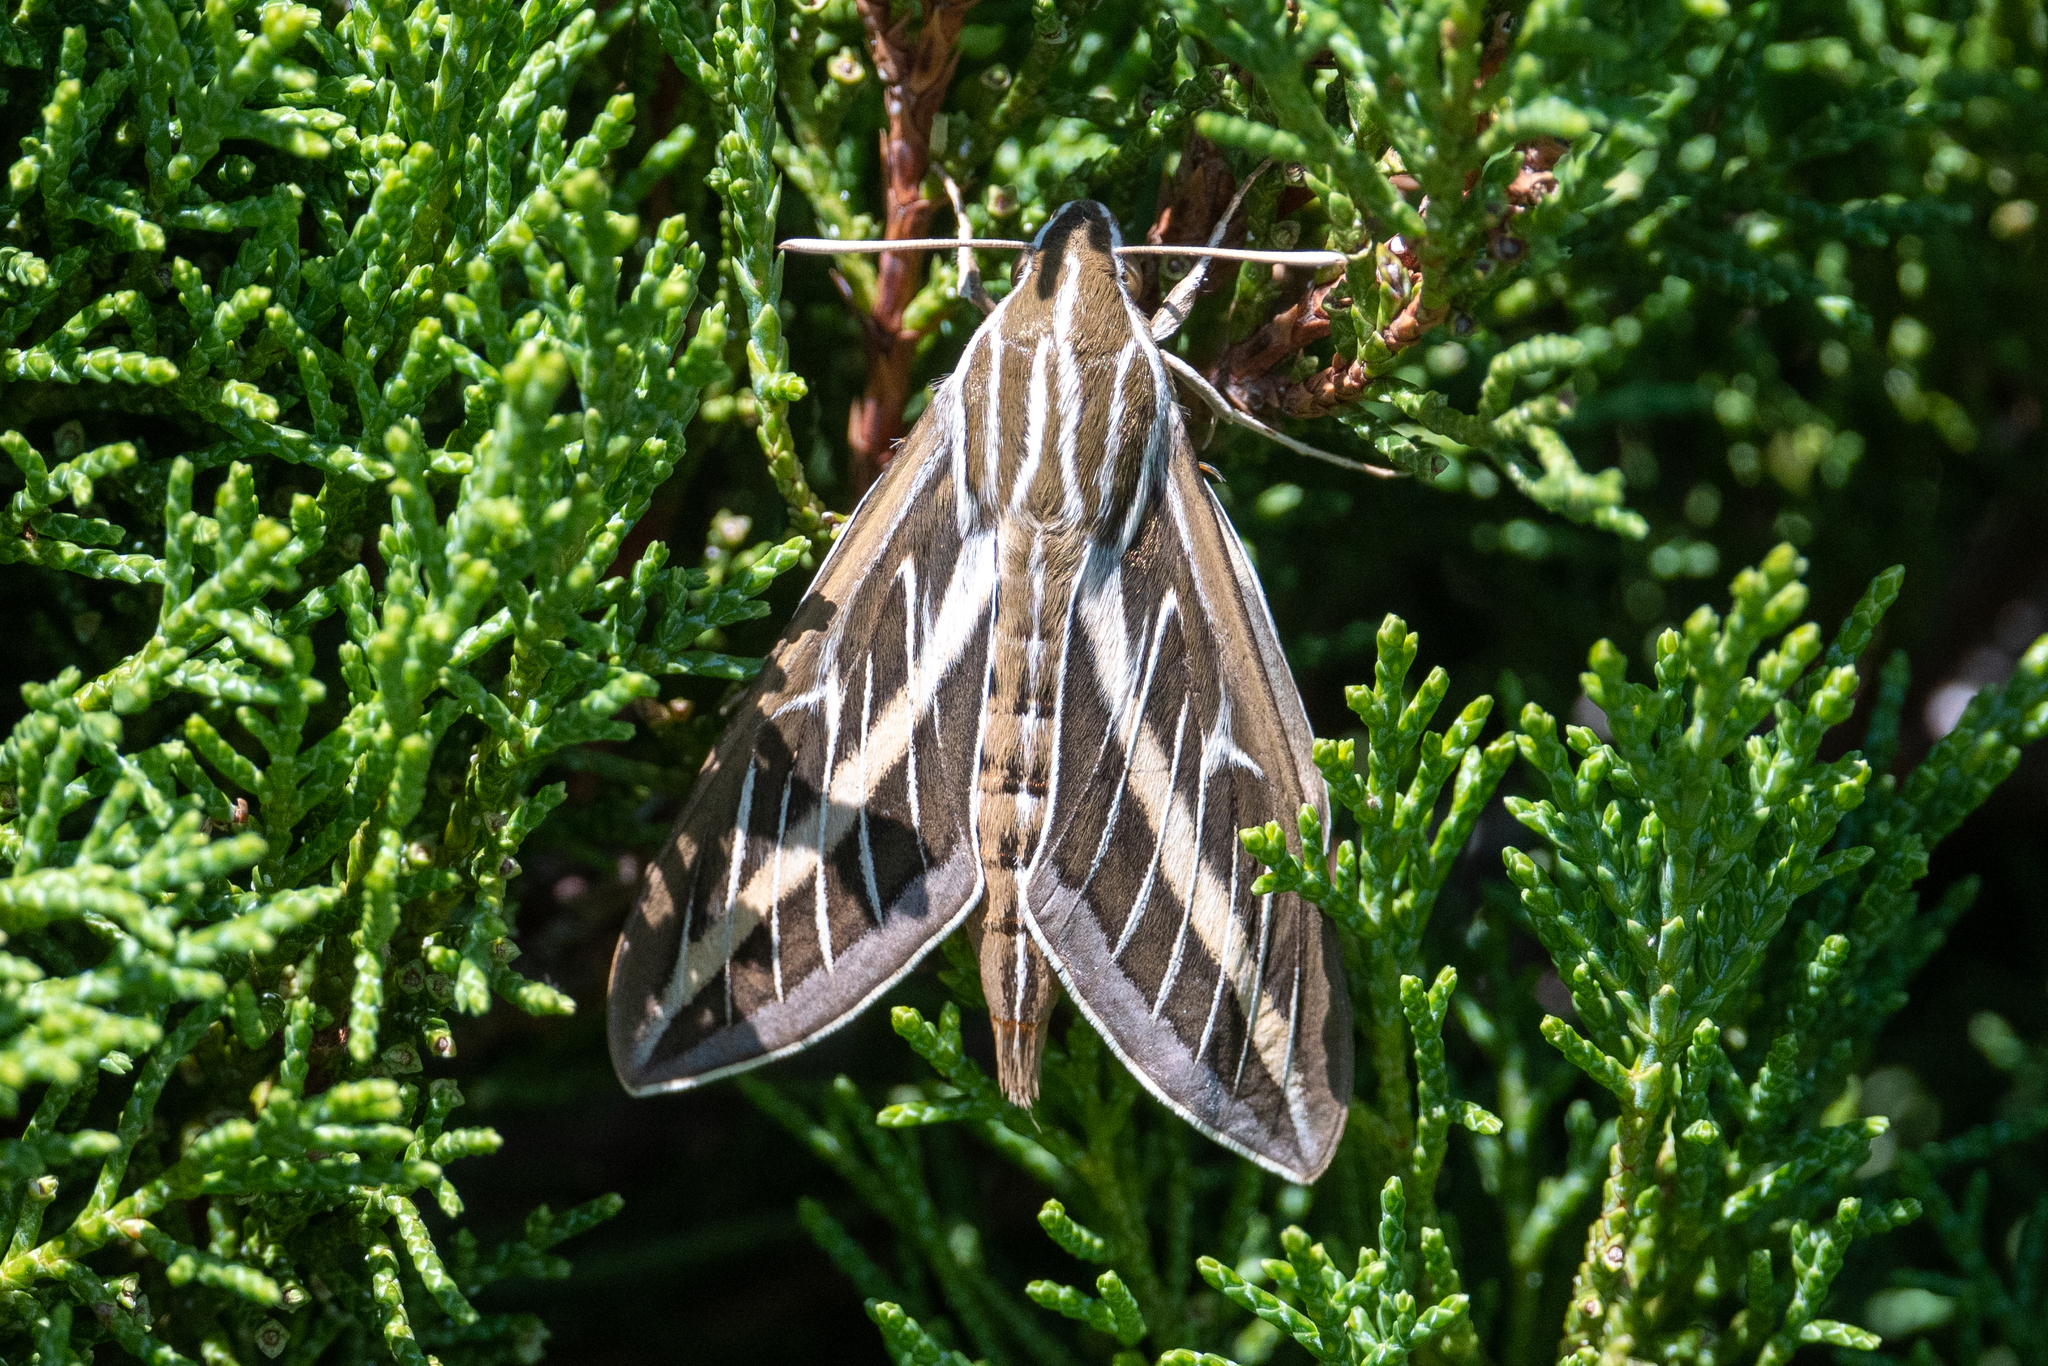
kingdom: Animalia
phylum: Arthropoda
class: Insecta
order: Lepidoptera
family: Sphingidae
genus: Hyles
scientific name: Hyles lineata
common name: White-lined sphinx
